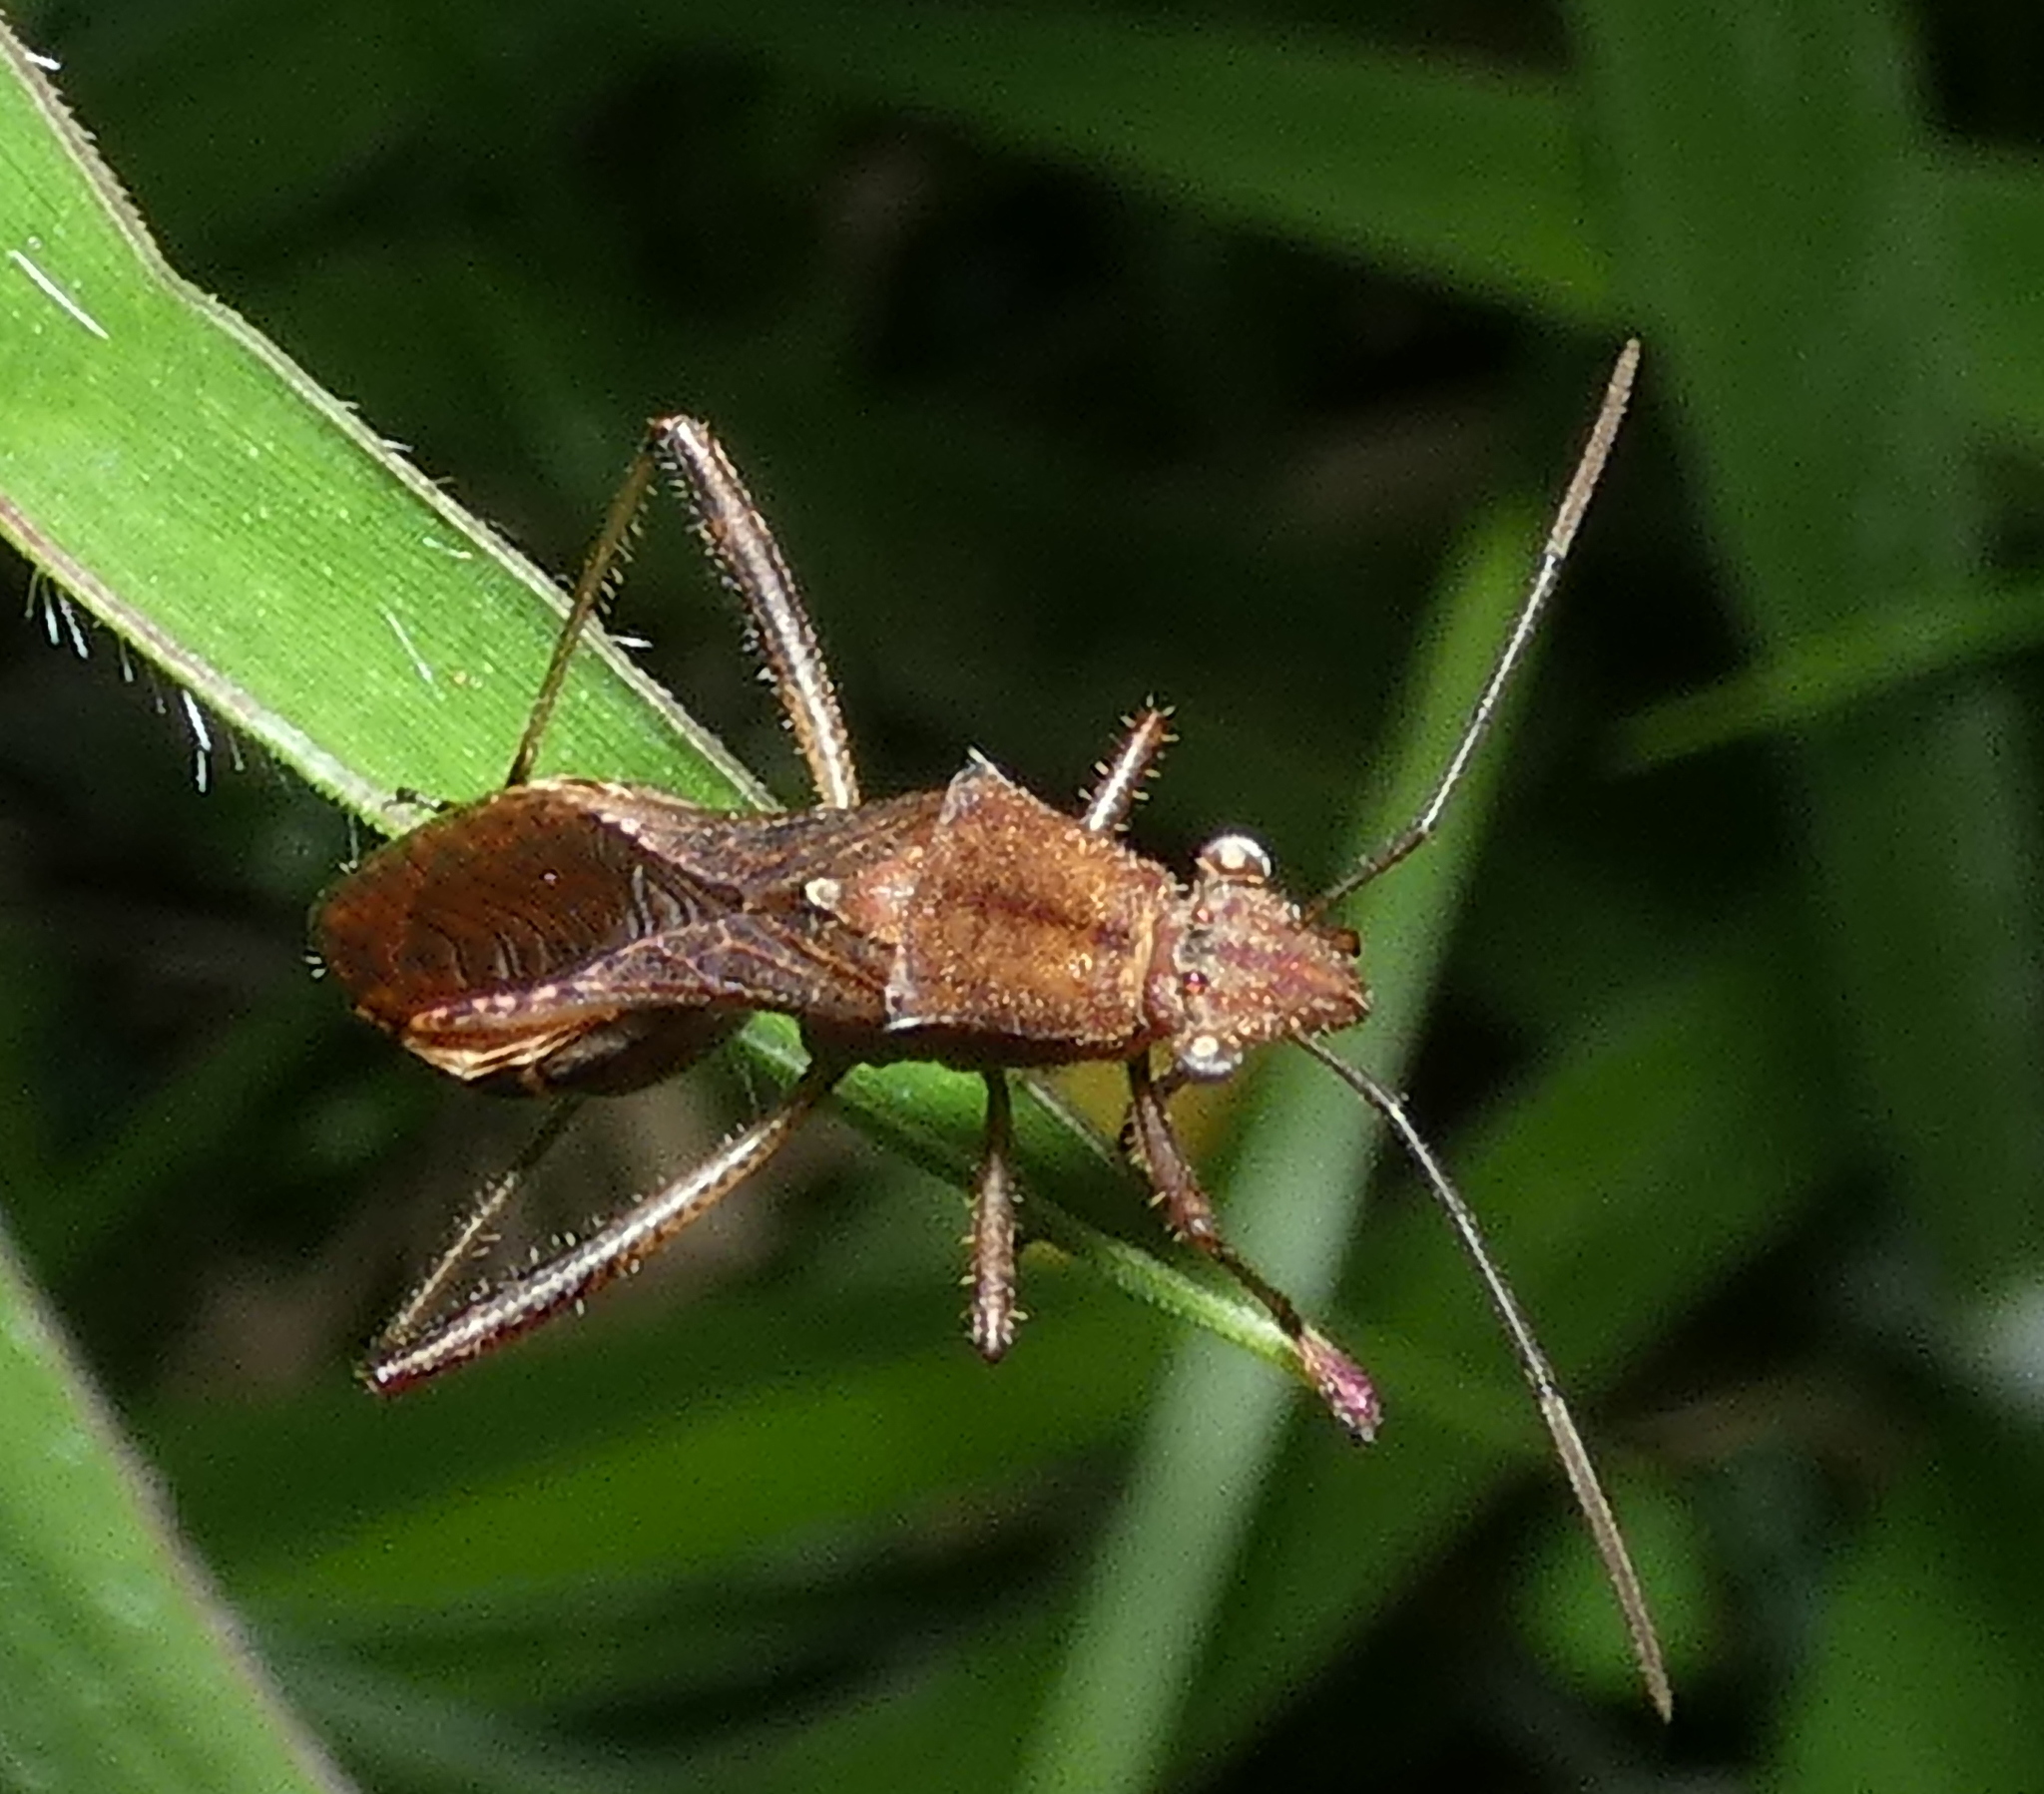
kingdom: Animalia
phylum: Arthropoda
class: Insecta
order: Hemiptera
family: Alydidae
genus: Neomegalotomus
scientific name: Neomegalotomus parvus
